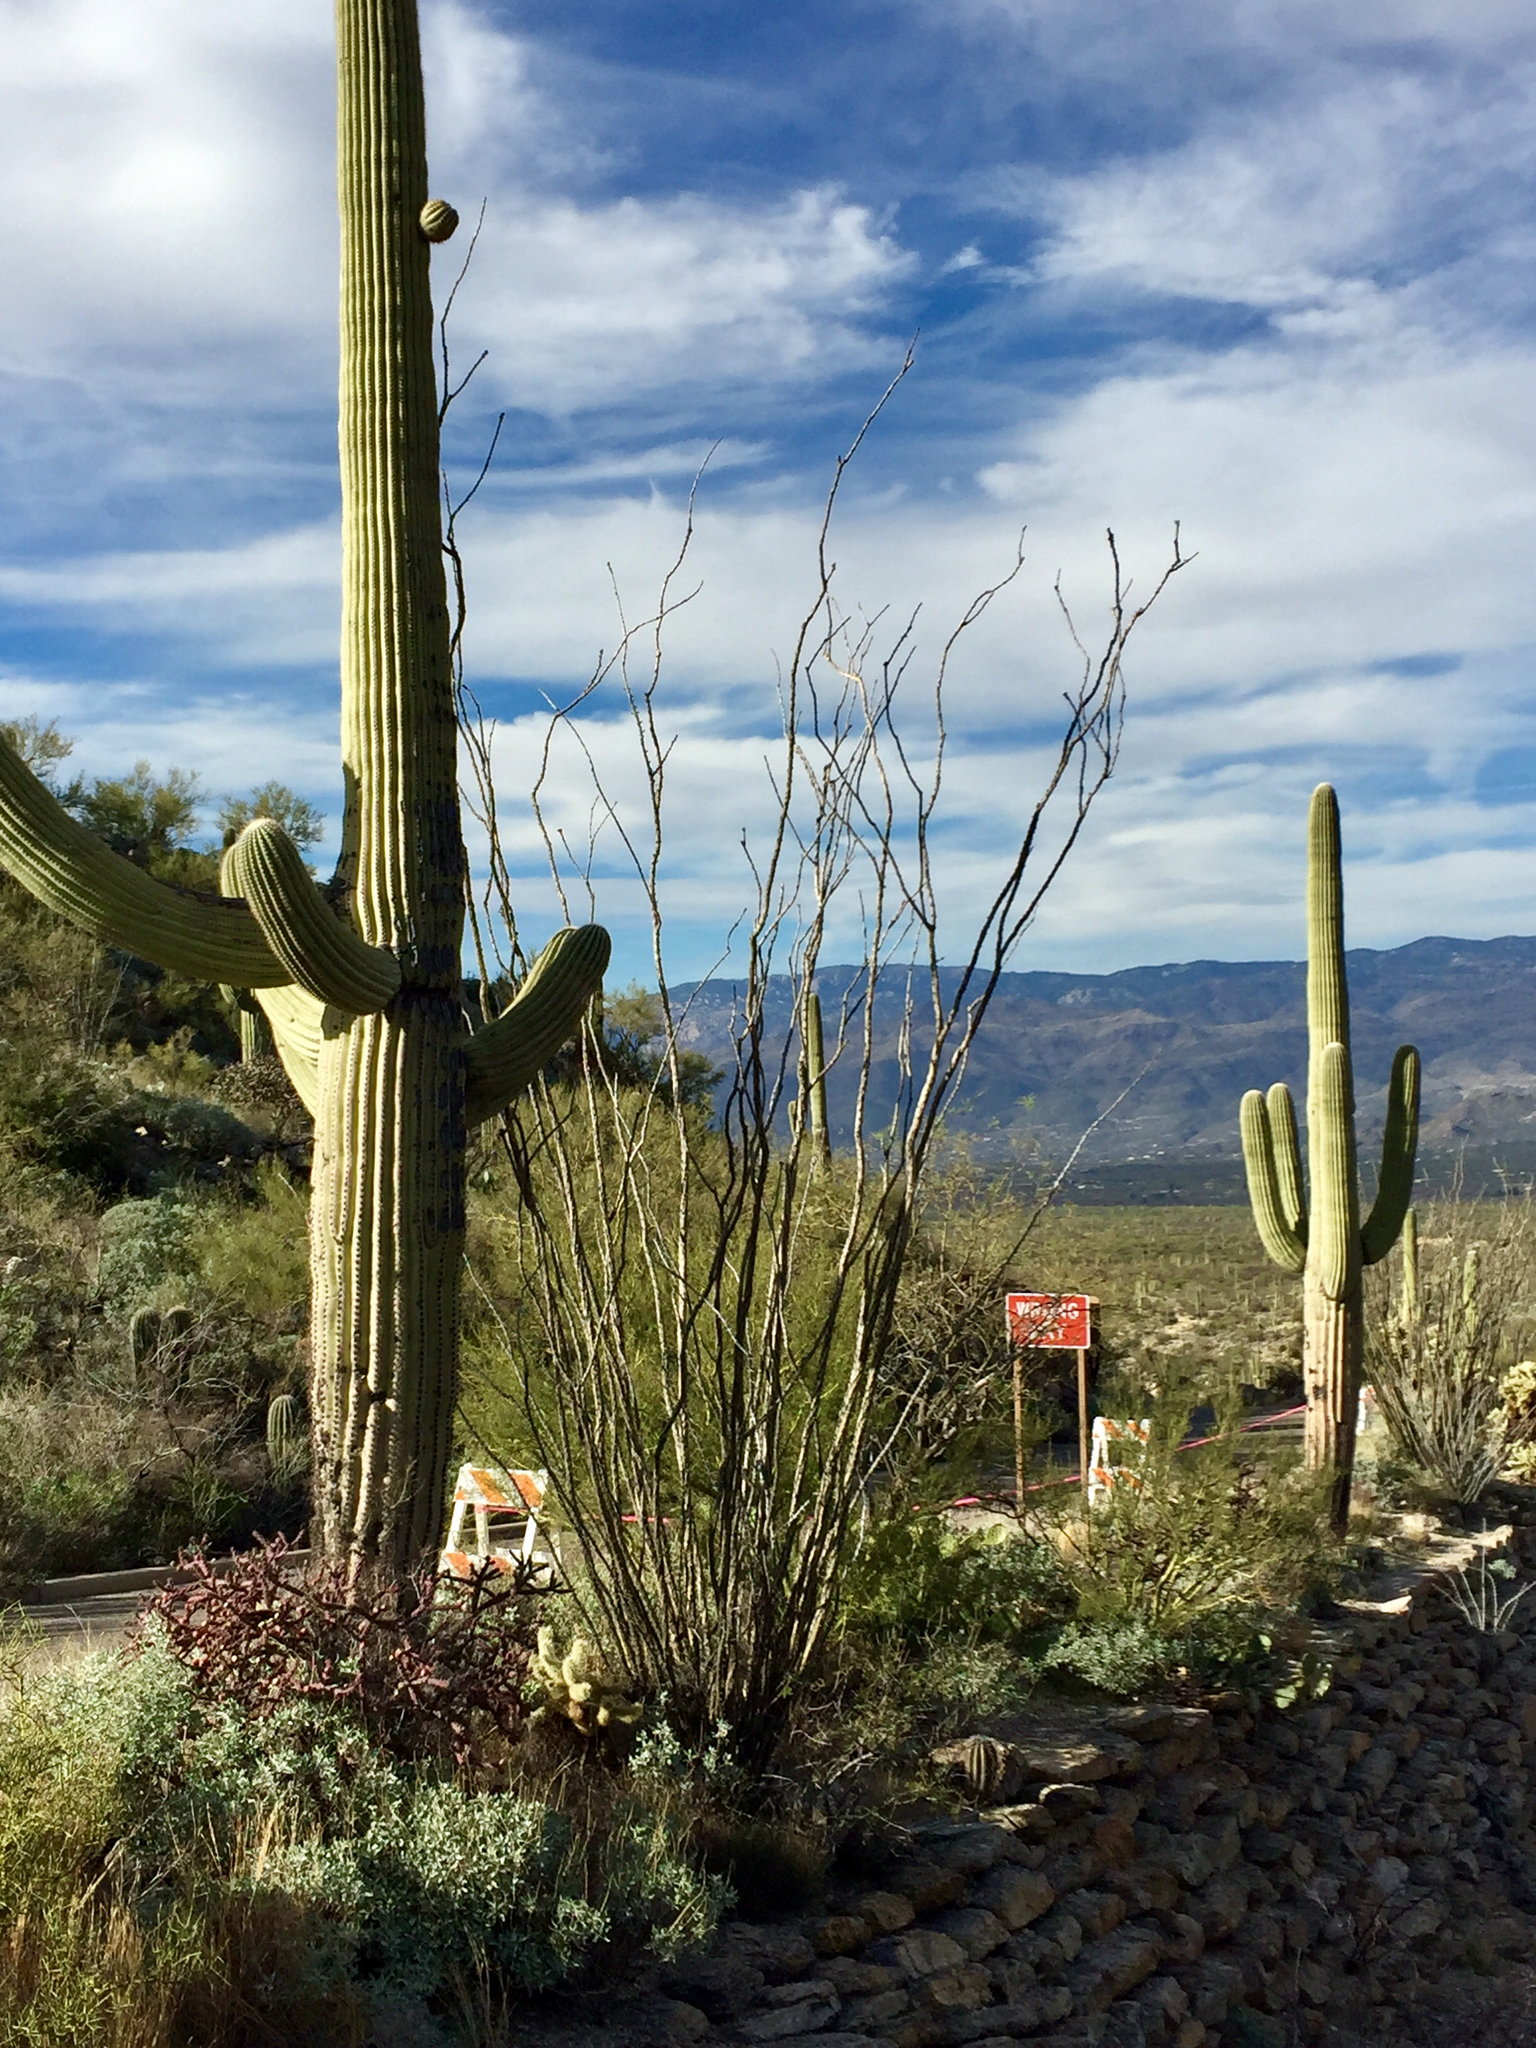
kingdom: Plantae
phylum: Tracheophyta
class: Magnoliopsida
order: Ericales
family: Fouquieriaceae
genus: Fouquieria
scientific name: Fouquieria splendens
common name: Vine-cactus
